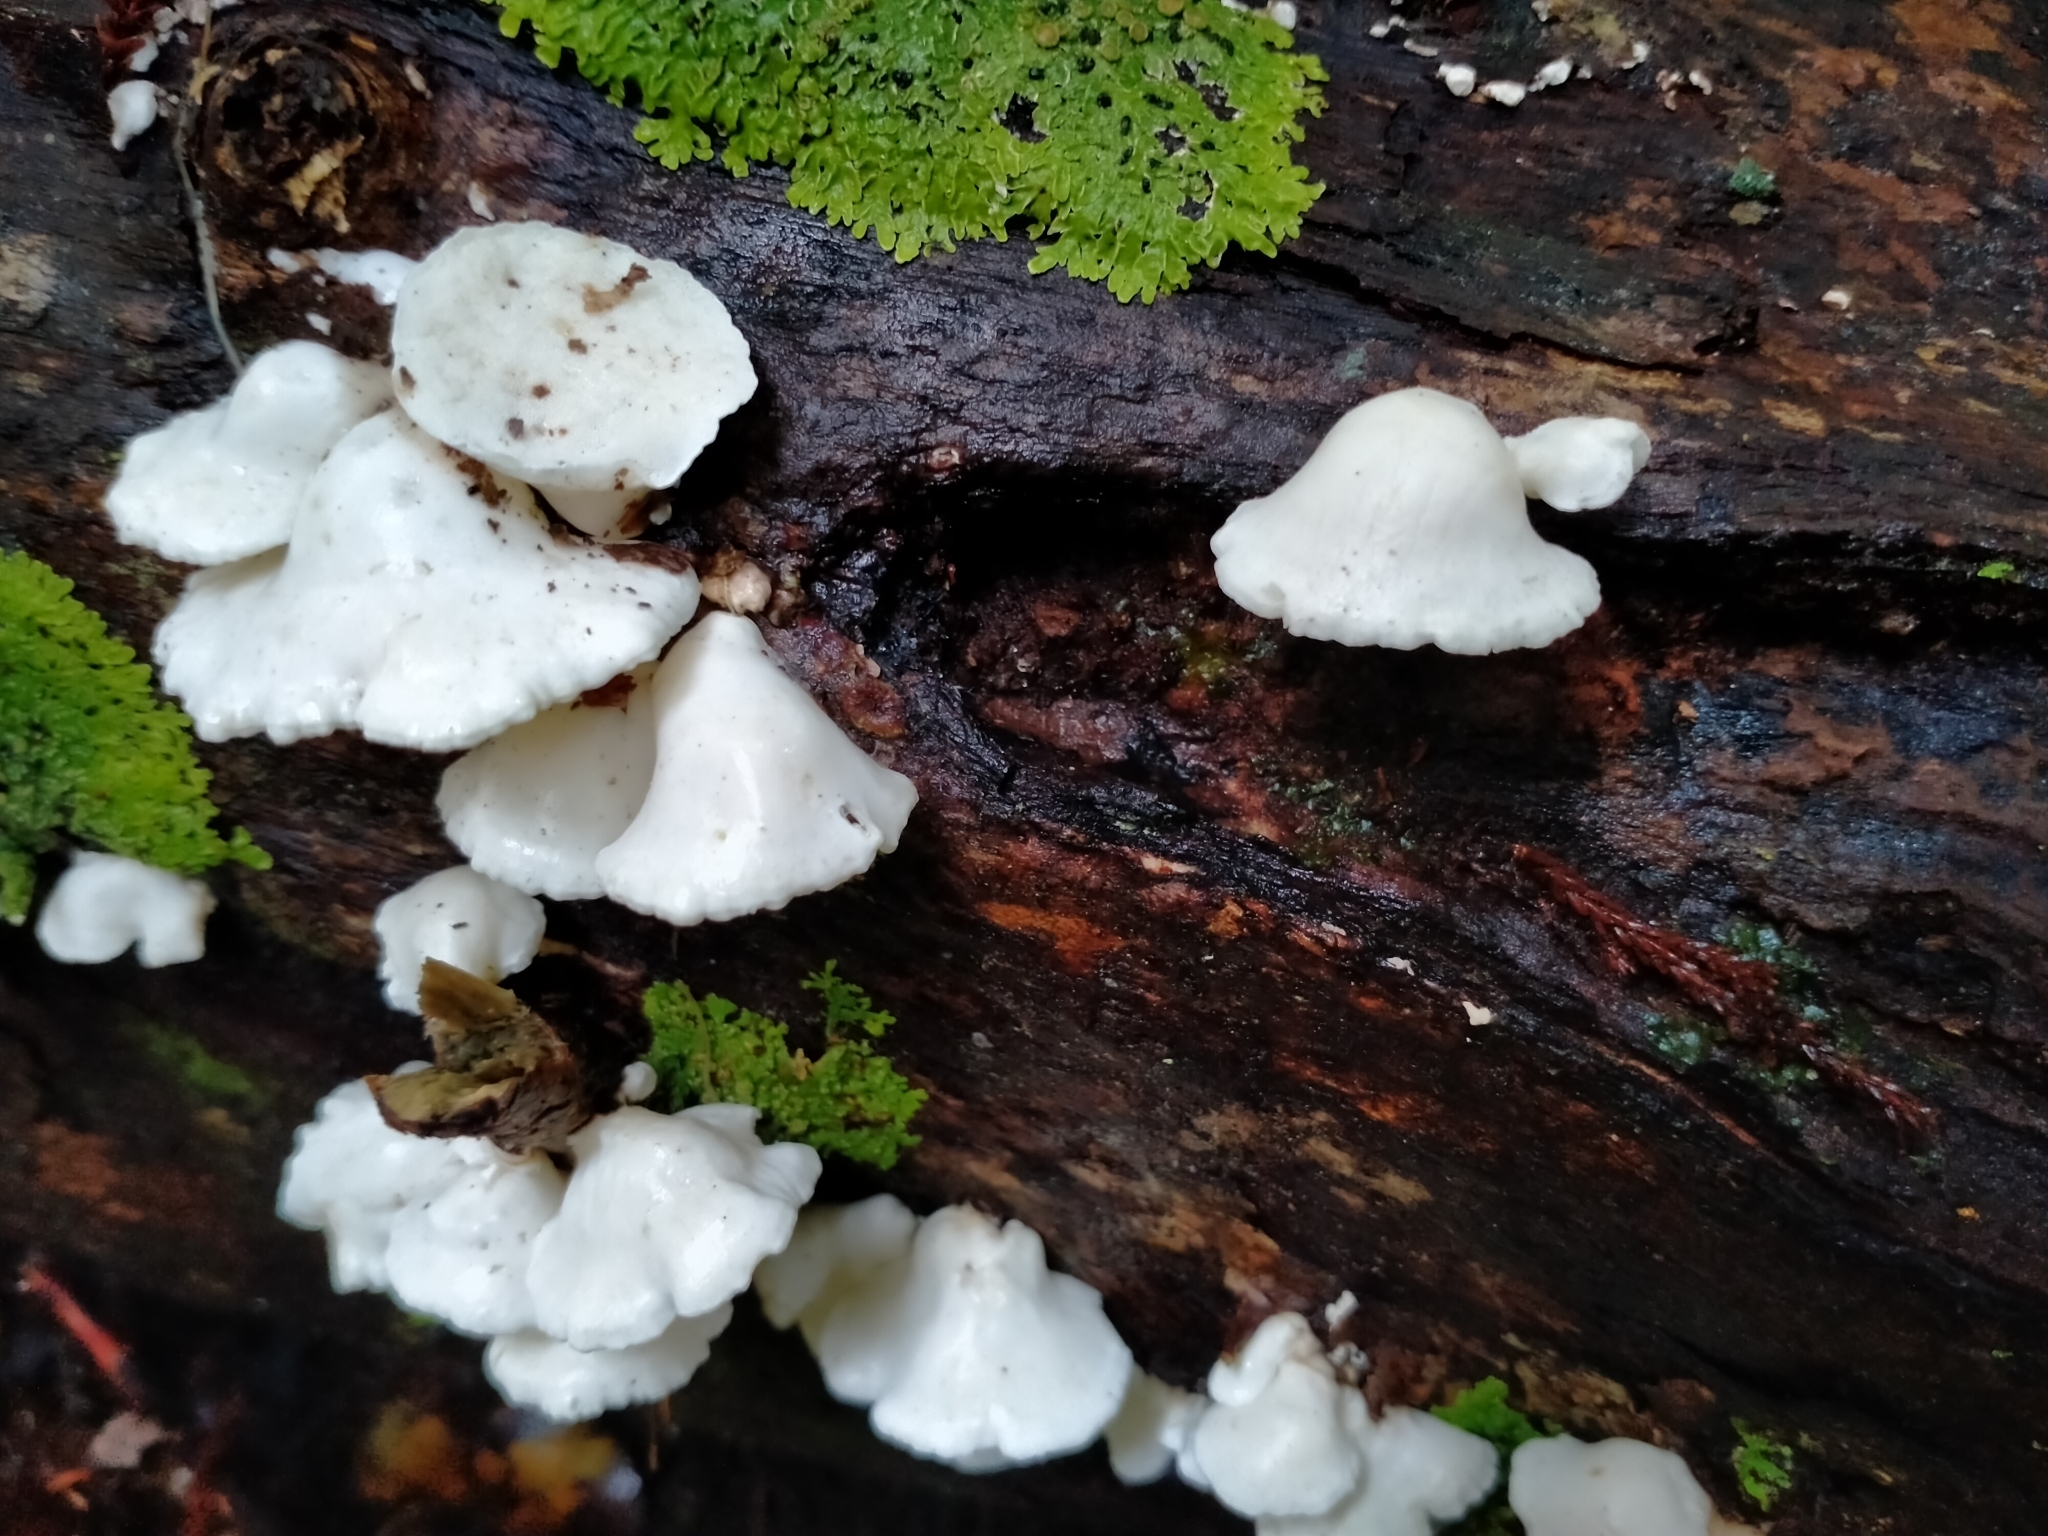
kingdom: Fungi
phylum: Basidiomycota
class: Agaricomycetes
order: Polyporales
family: Irpicaceae
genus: Gloeoporus
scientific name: Gloeoporus phlebophorus
